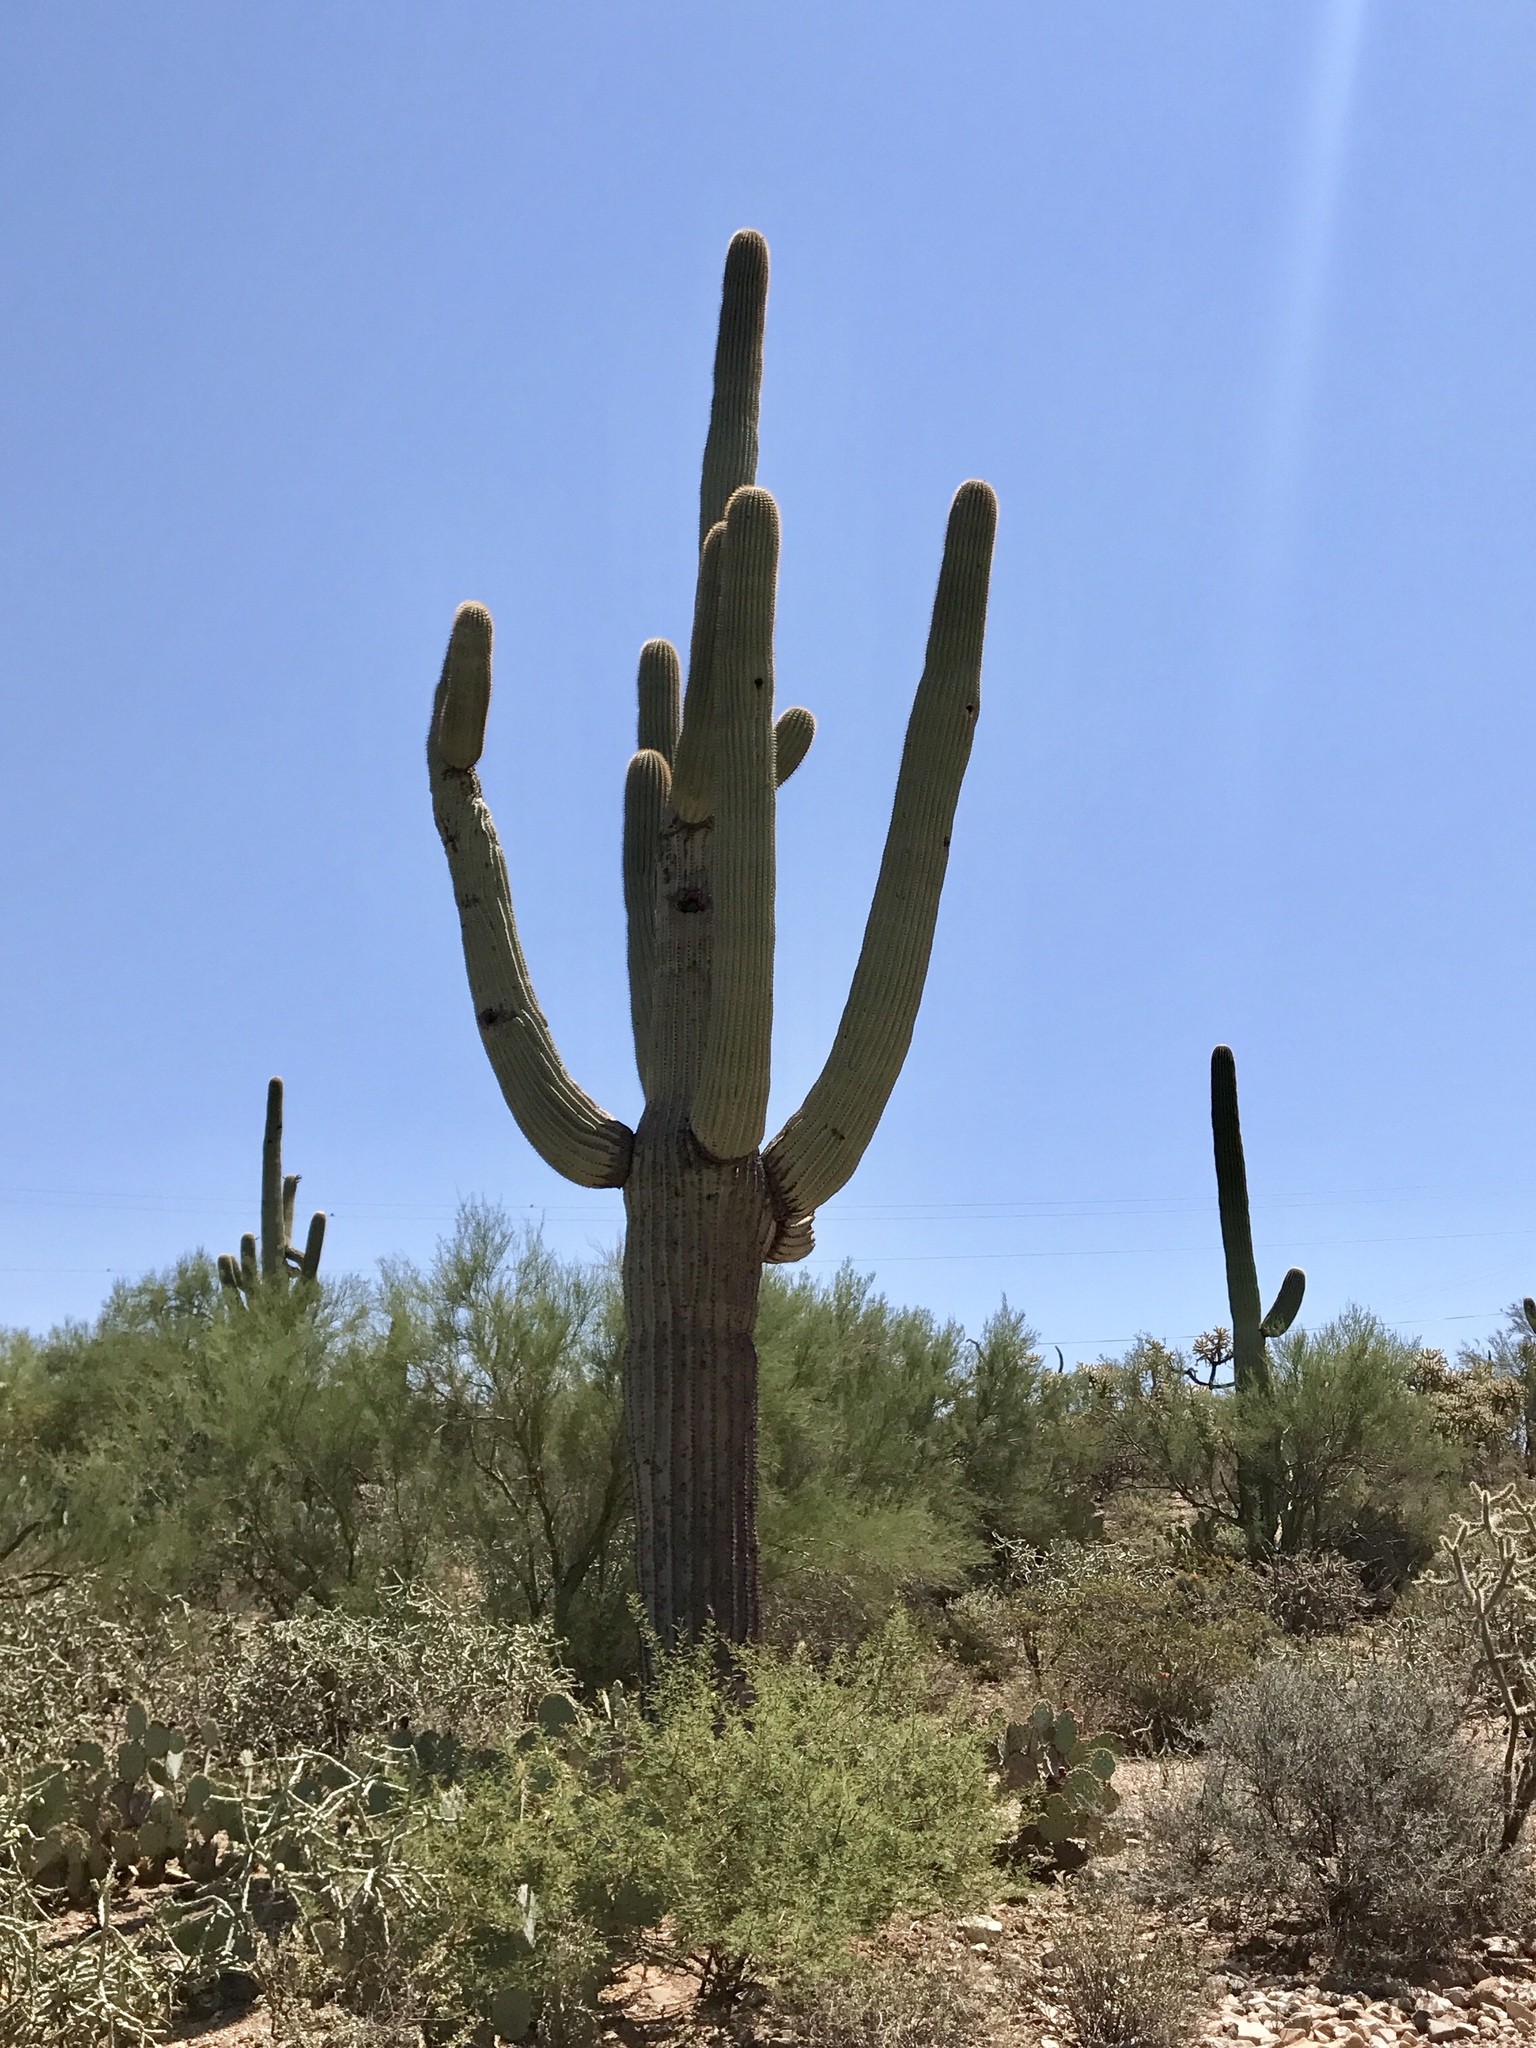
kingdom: Plantae
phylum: Tracheophyta
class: Magnoliopsida
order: Caryophyllales
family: Cactaceae
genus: Carnegiea
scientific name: Carnegiea gigantea
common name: Saguaro
